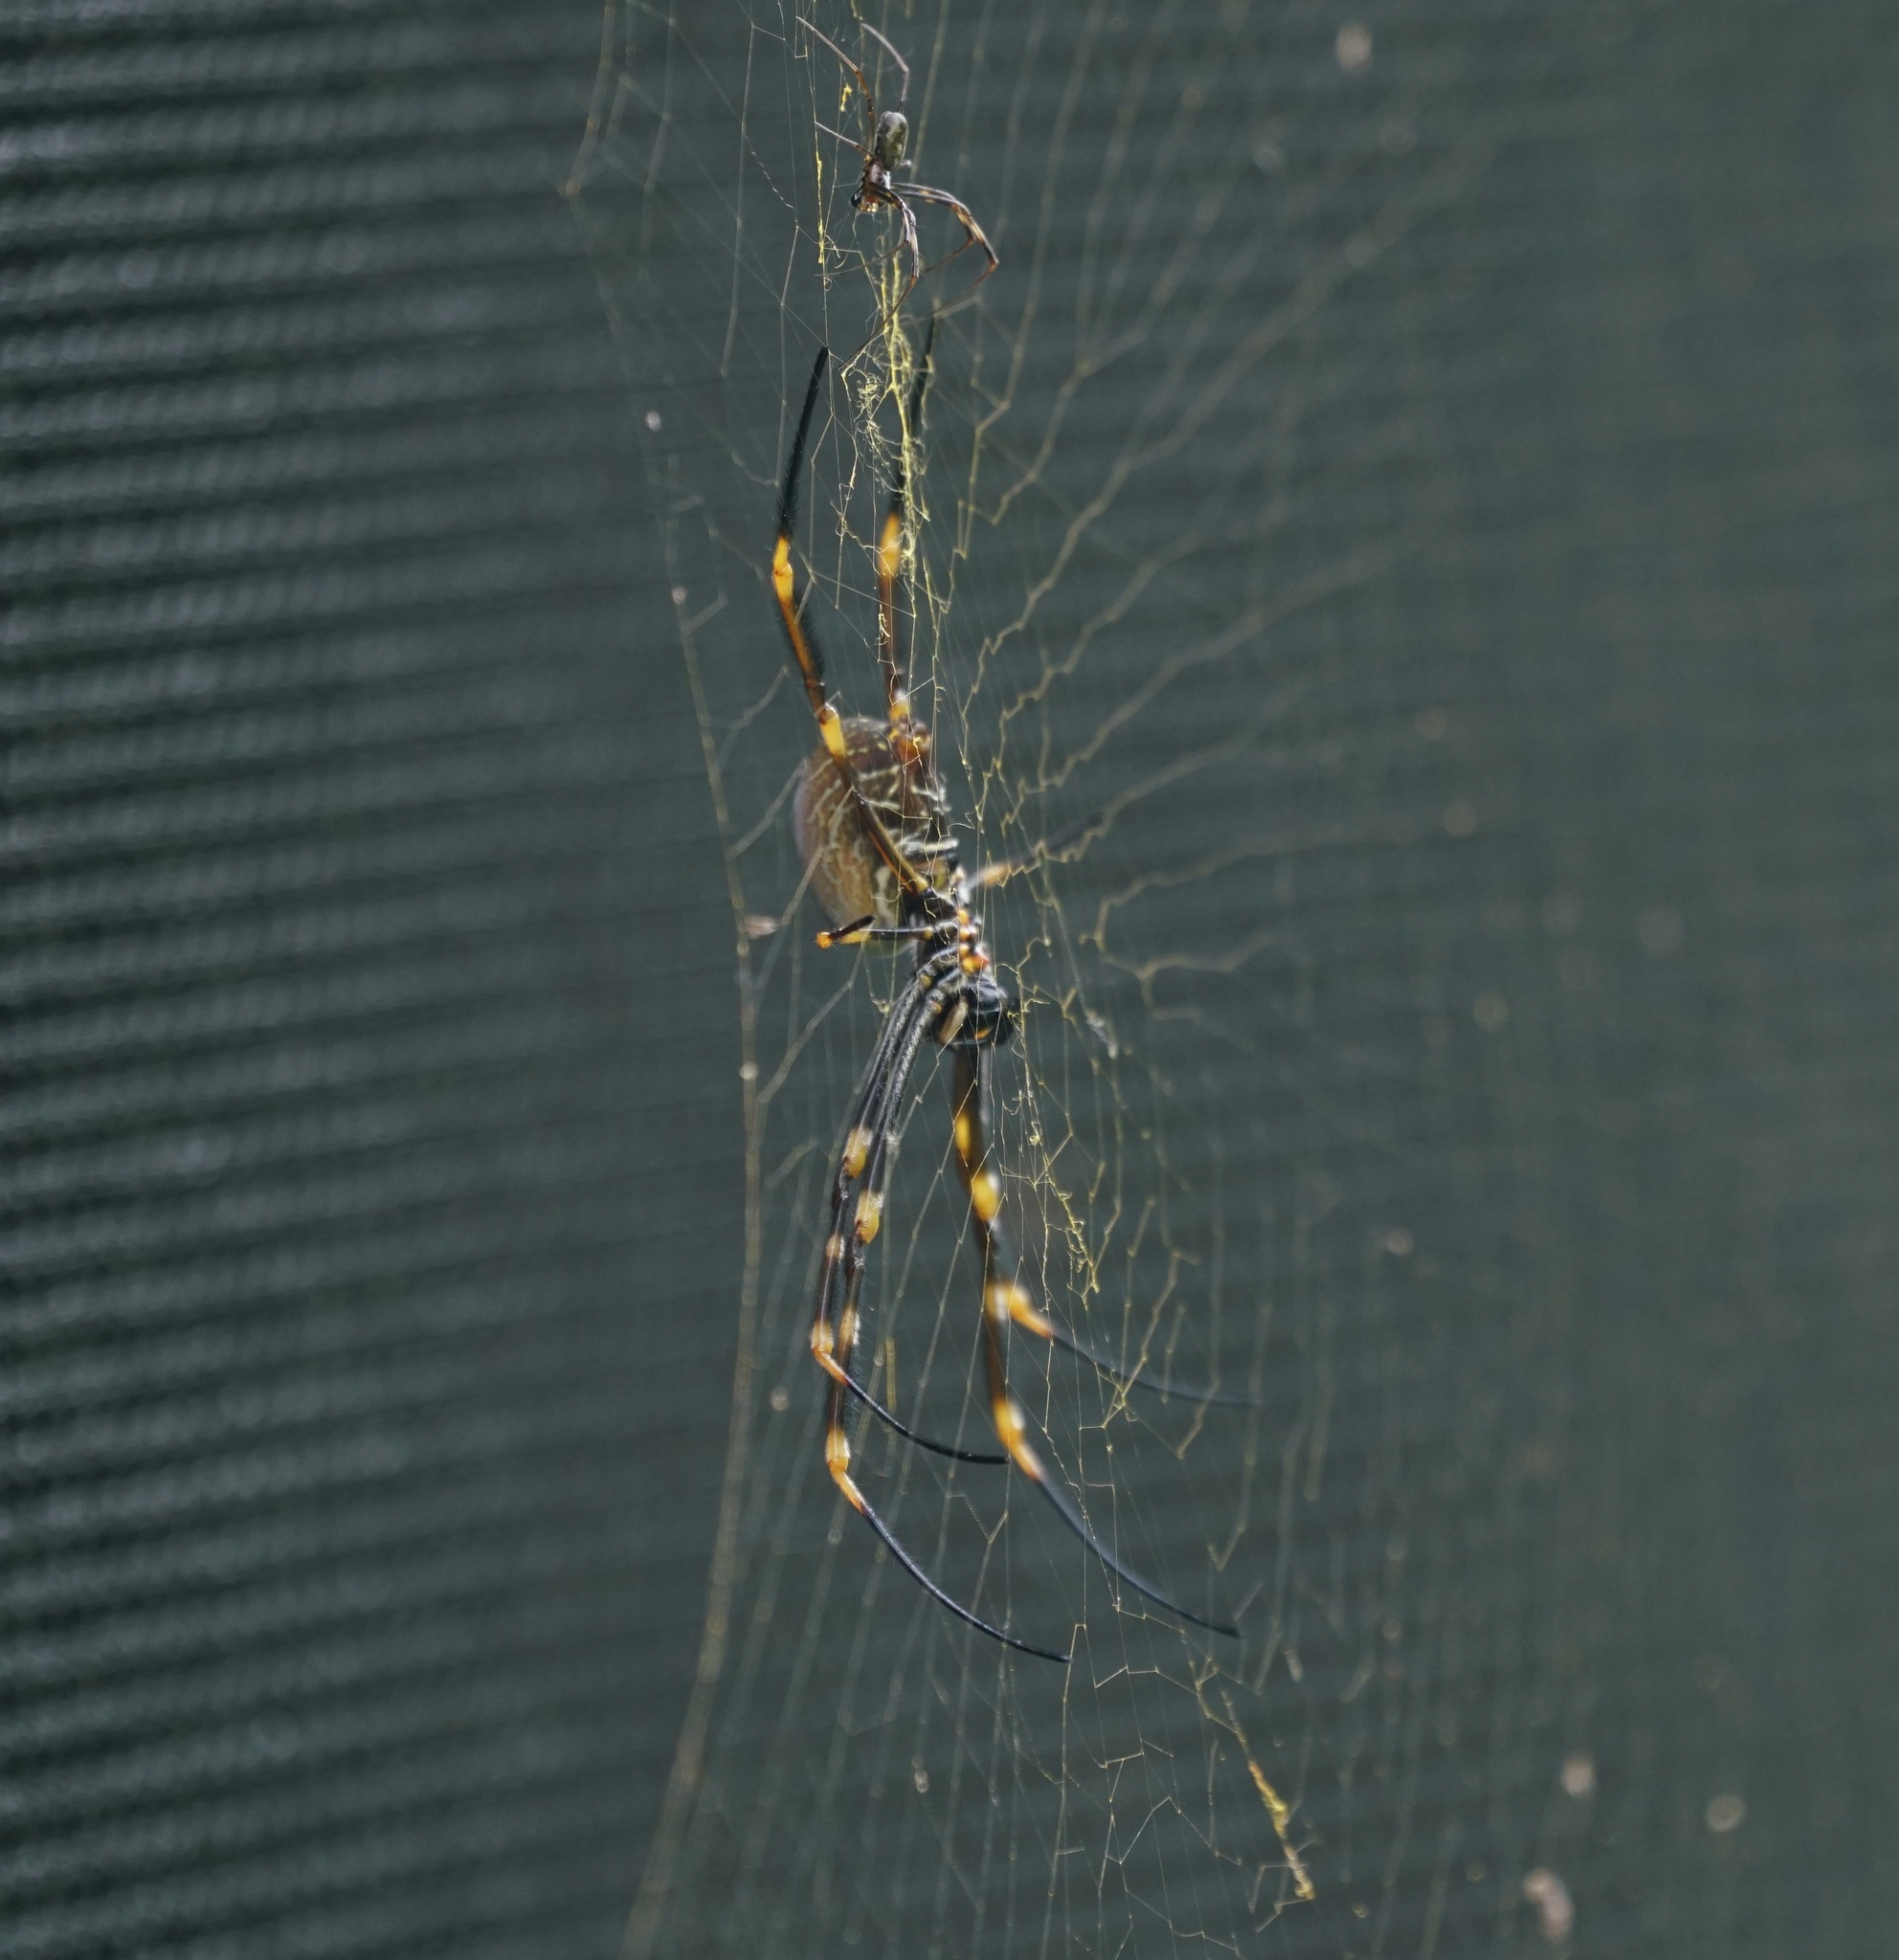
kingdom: Animalia
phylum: Arthropoda
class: Arachnida
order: Araneae
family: Araneidae
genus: Trichonephila
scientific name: Trichonephila plumipes
